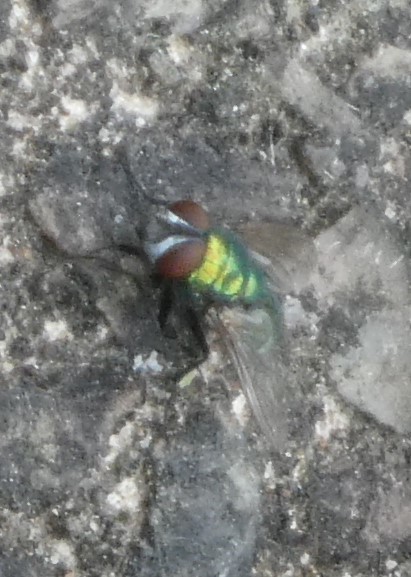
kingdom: Animalia
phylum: Arthropoda
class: Insecta
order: Diptera
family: Calliphoridae
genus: Lucilia
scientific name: Lucilia
